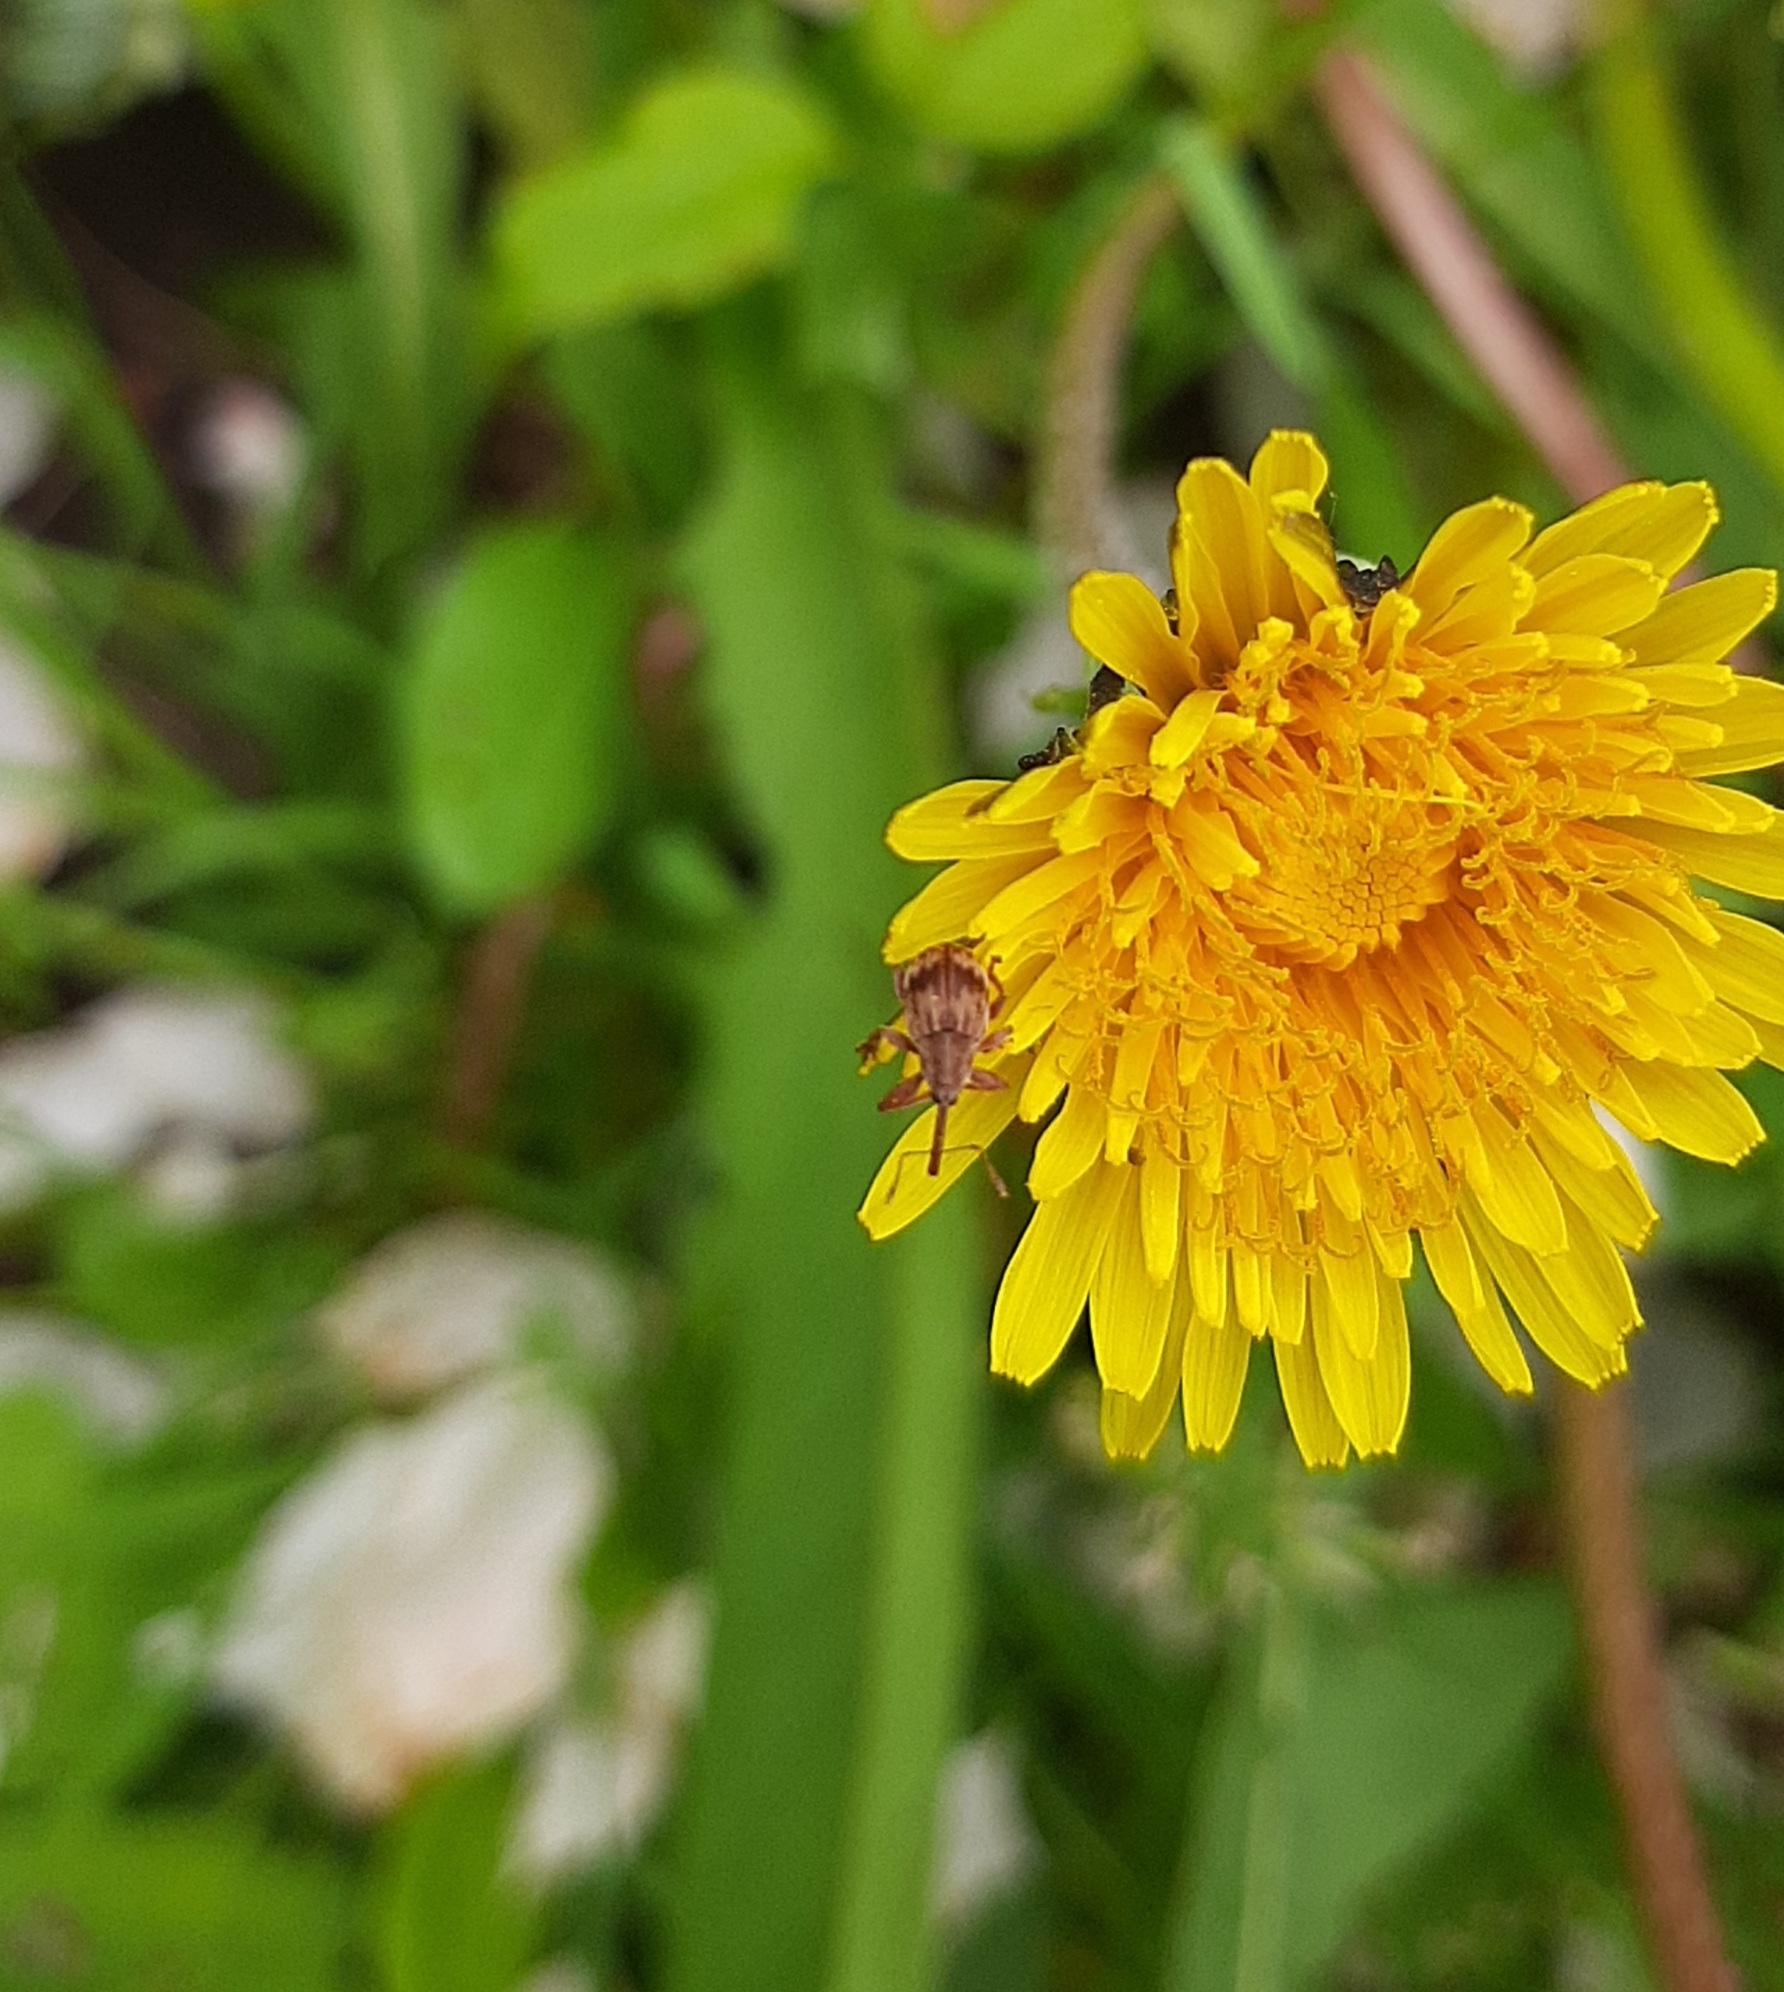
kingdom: Animalia
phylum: Arthropoda
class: Insecta
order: Coleoptera
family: Curculionidae
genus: Anthonomus
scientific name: Anthonomus rectirostris
